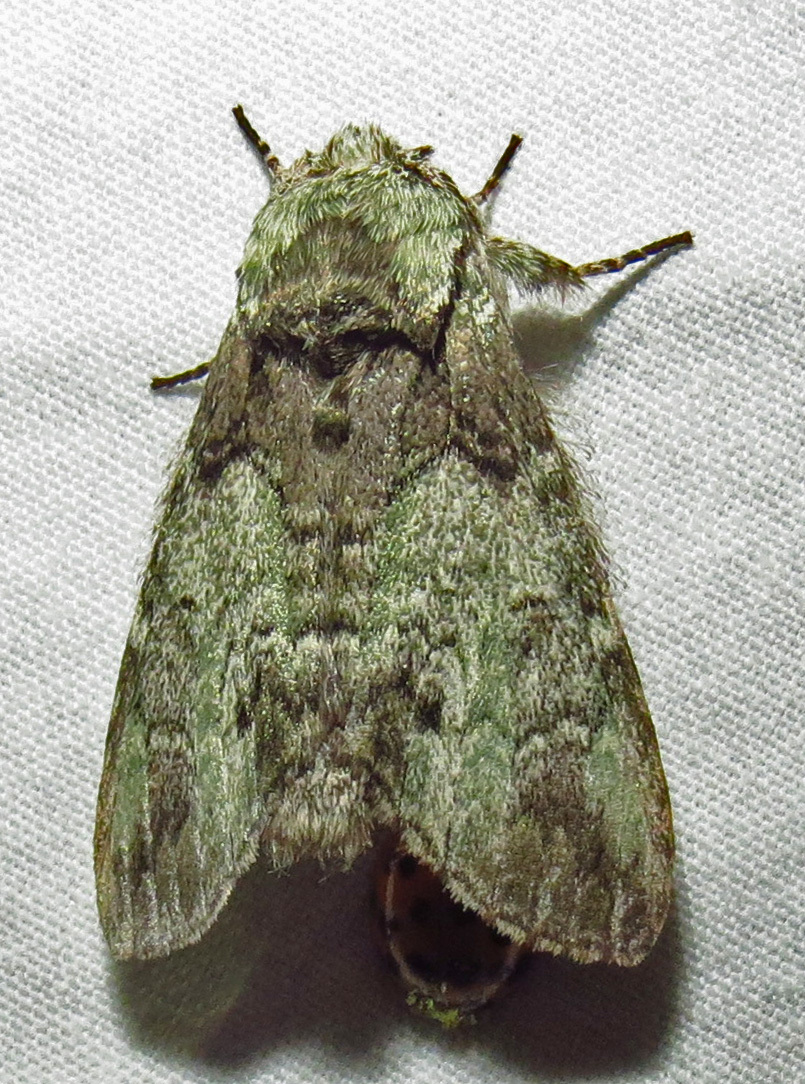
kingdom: Animalia
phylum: Arthropoda
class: Insecta
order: Lepidoptera
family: Notodontidae
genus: Macrurocampa
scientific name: Macrurocampa marthesia
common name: Mottled prominent
